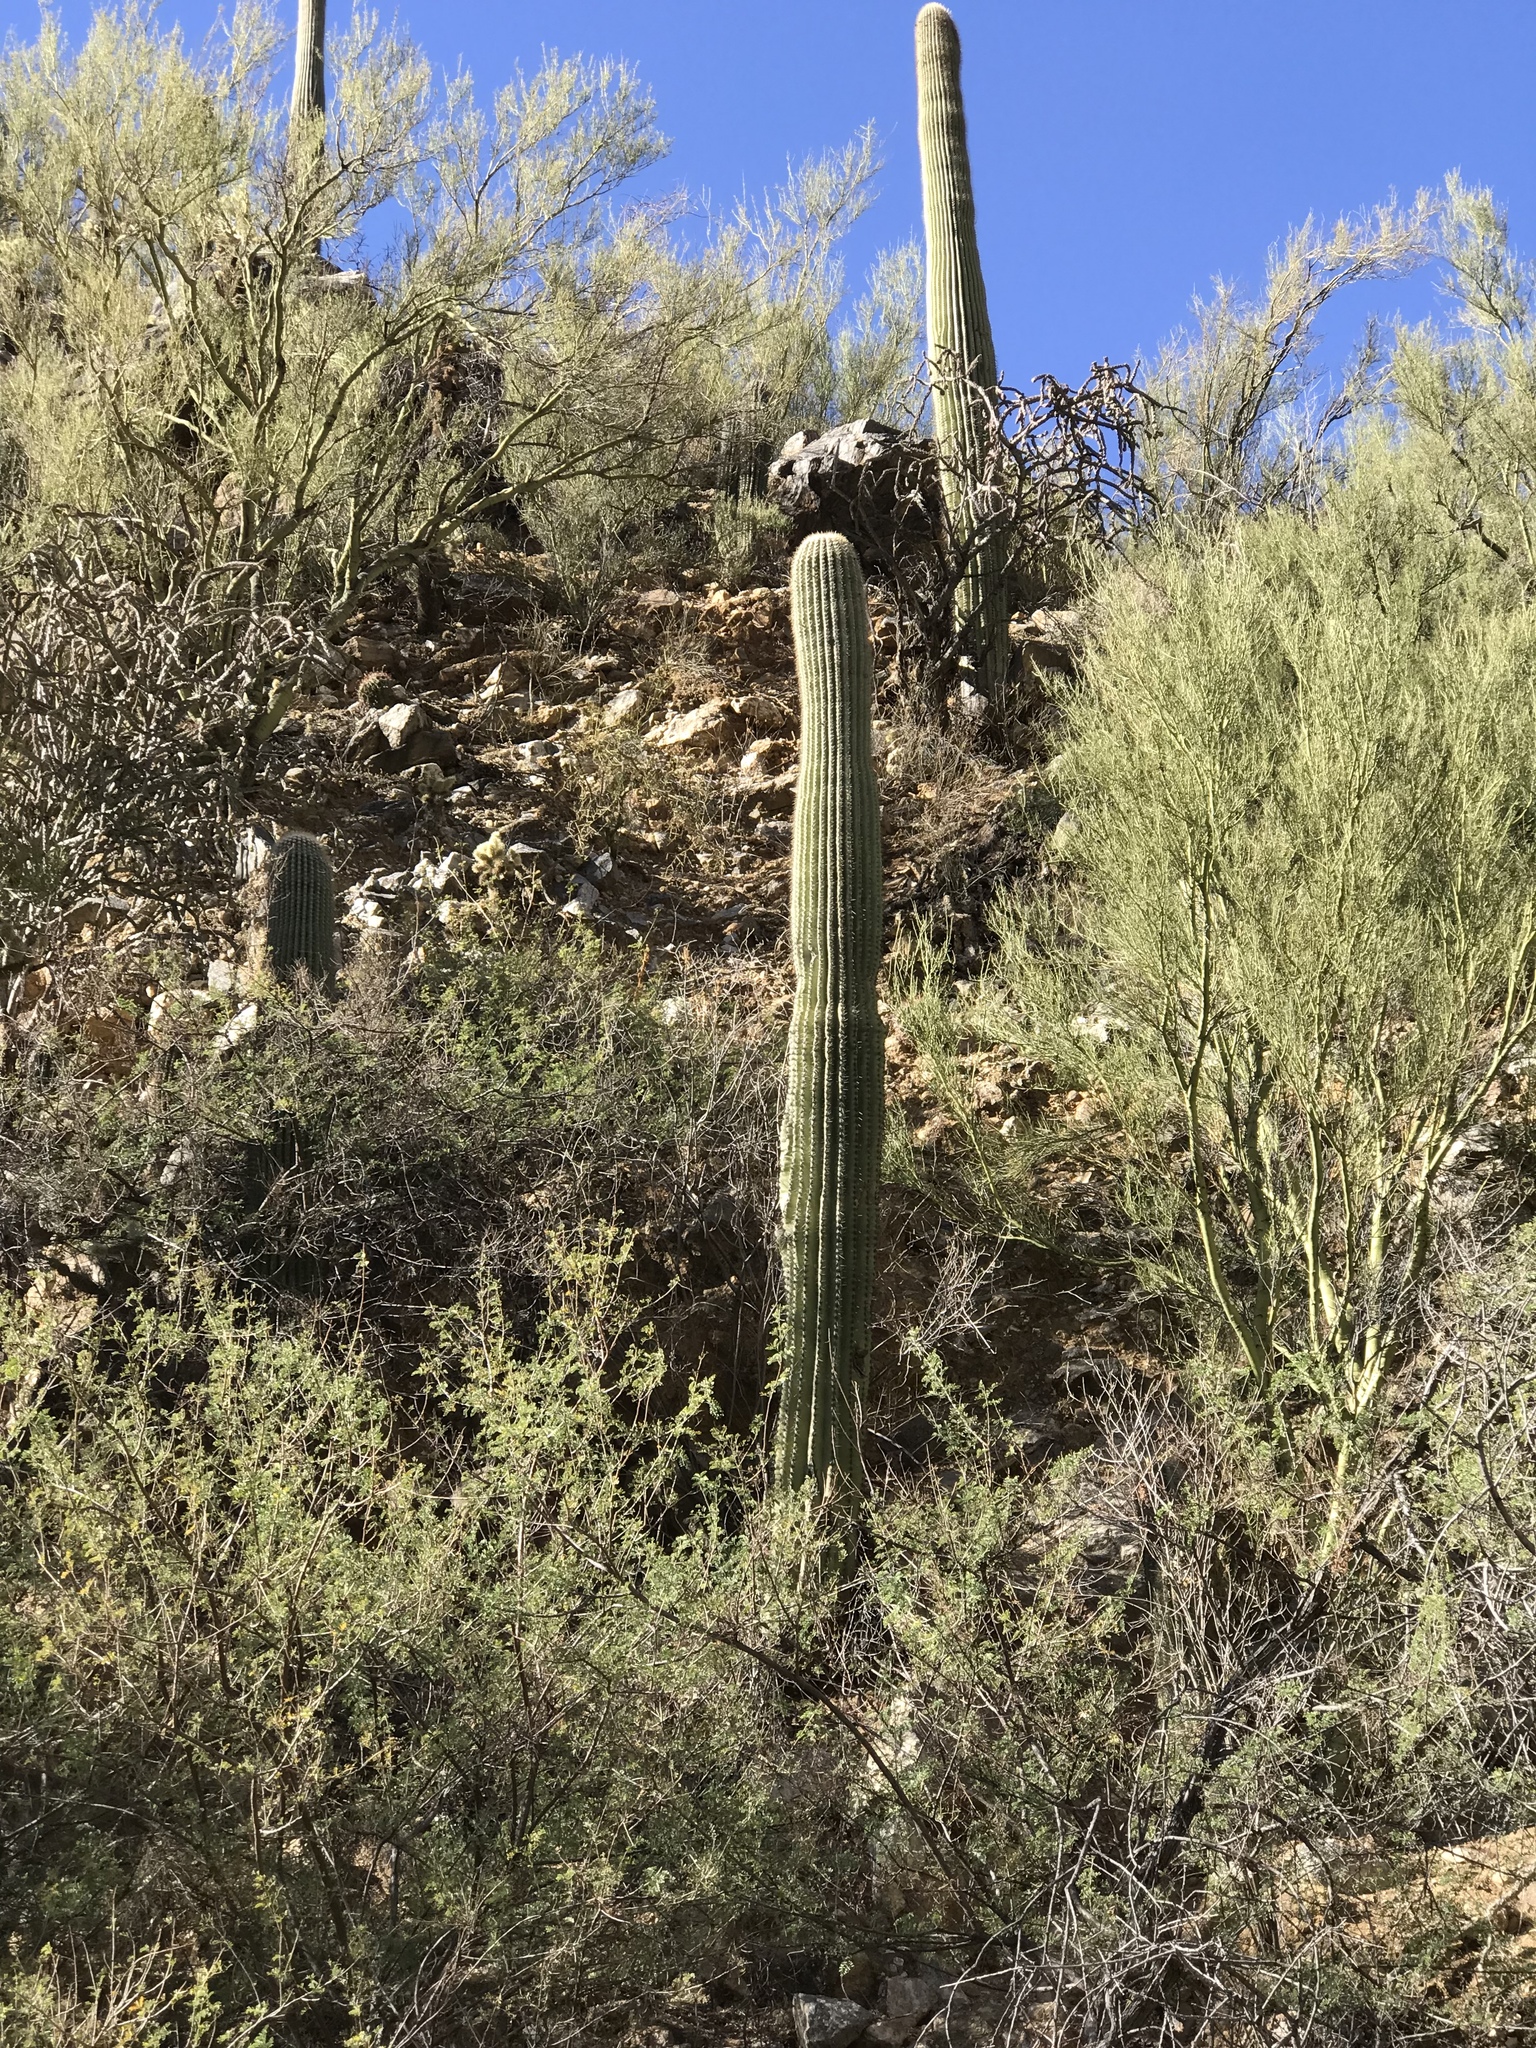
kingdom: Plantae
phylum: Tracheophyta
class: Magnoliopsida
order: Caryophyllales
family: Cactaceae
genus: Carnegiea
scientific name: Carnegiea gigantea
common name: Saguaro
